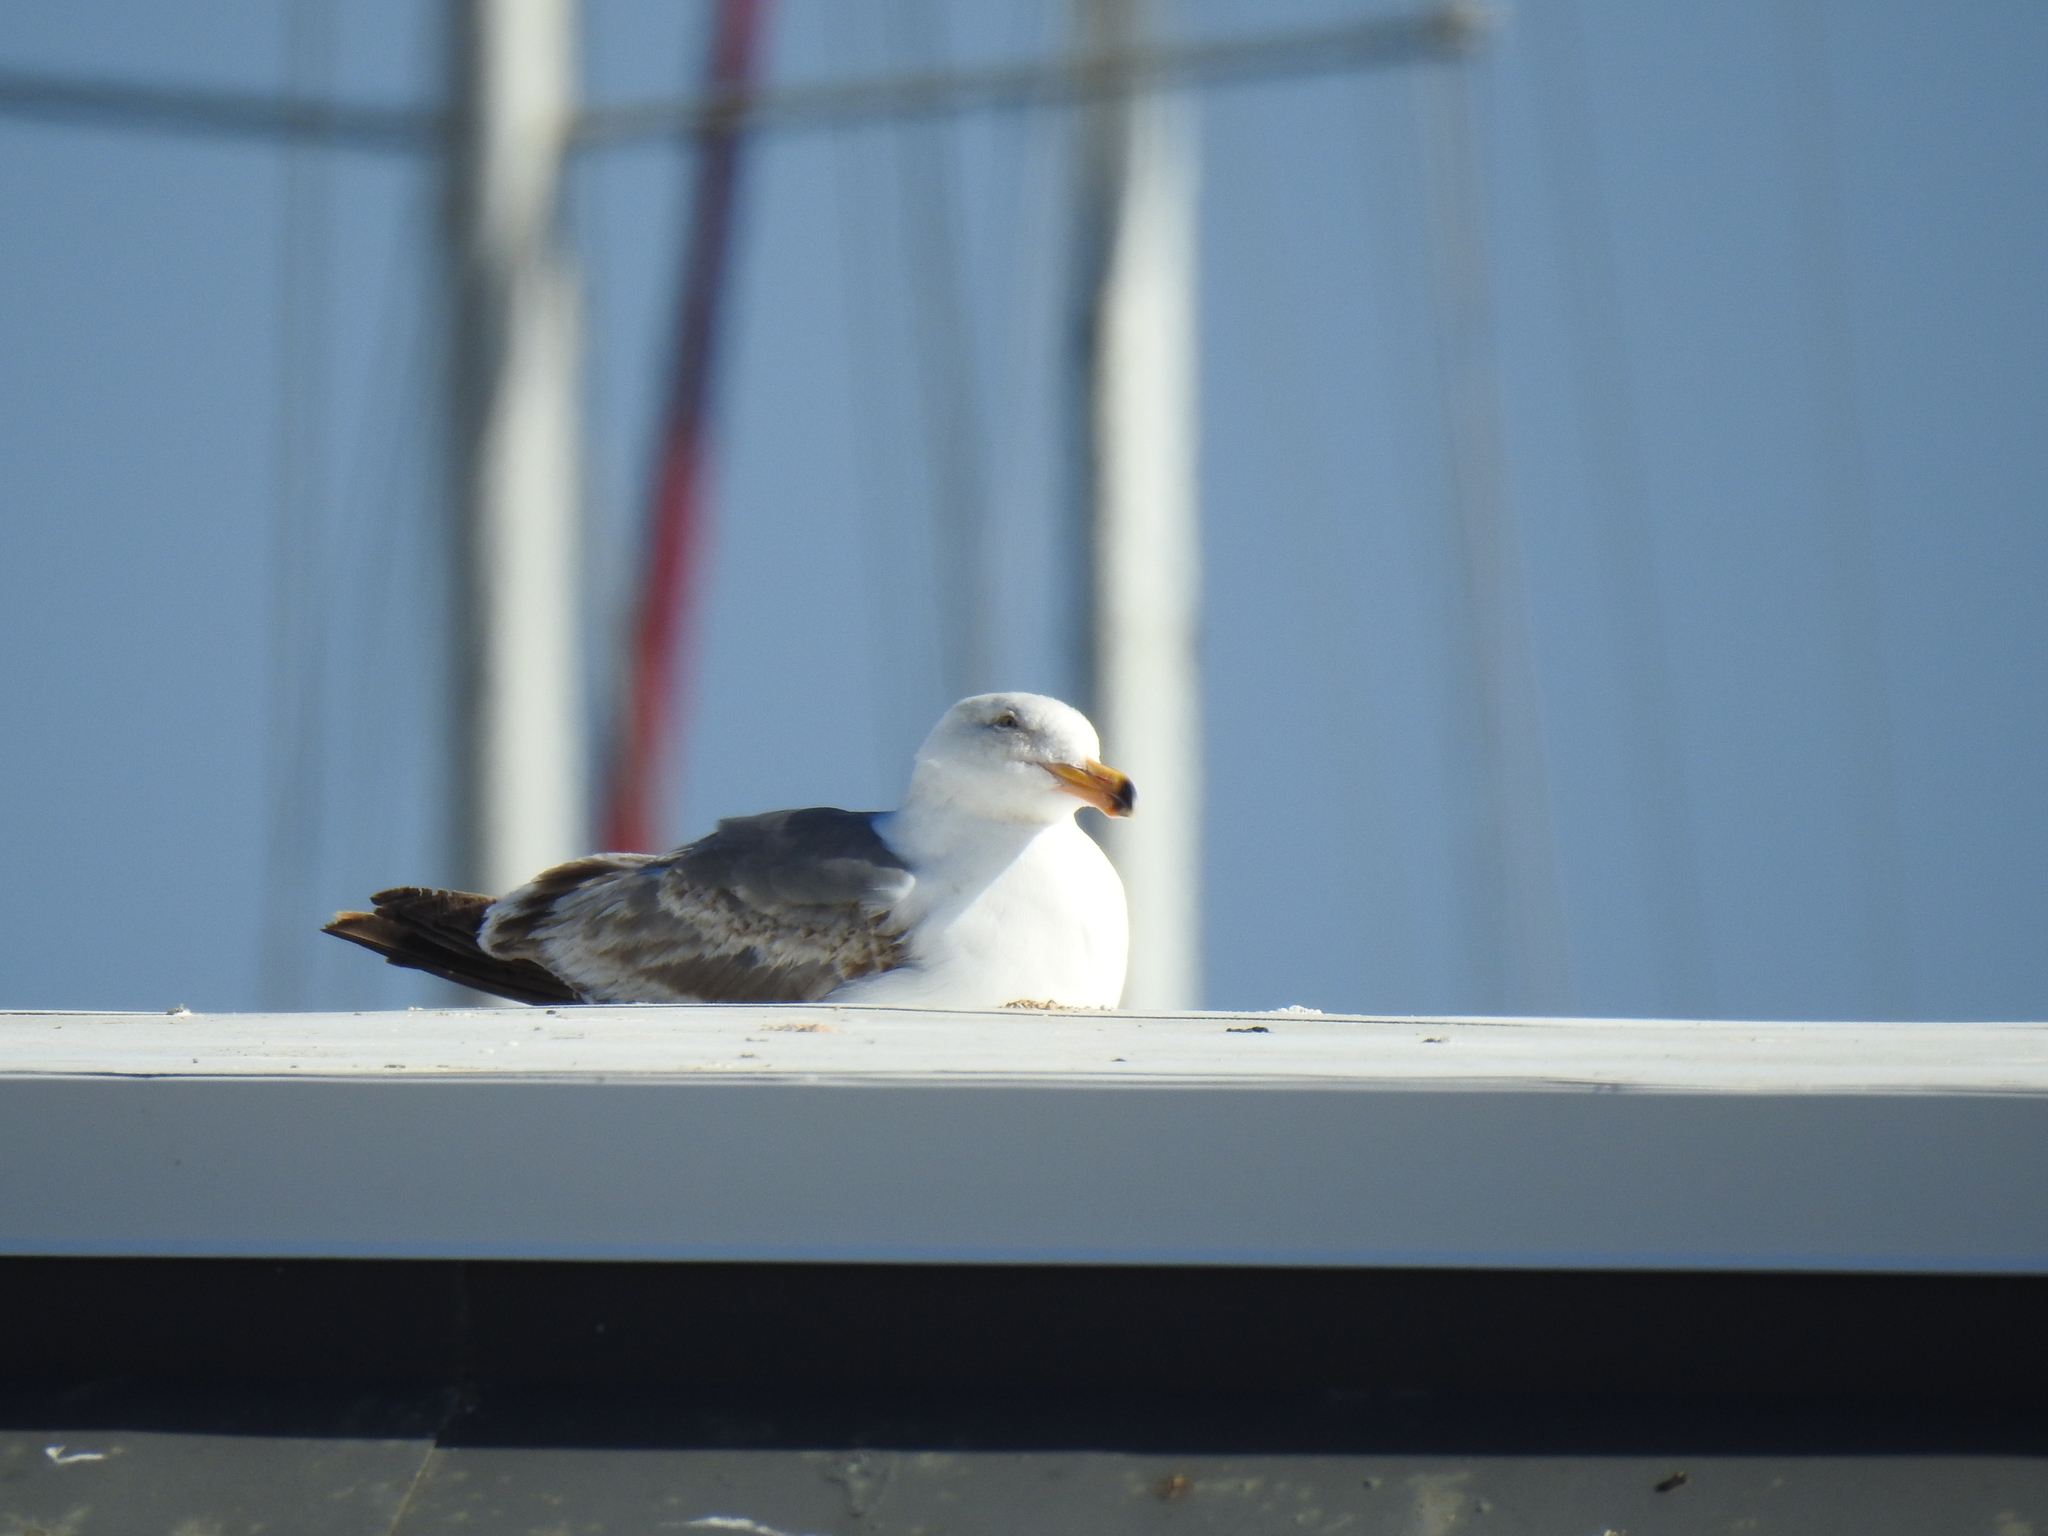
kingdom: Animalia
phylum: Chordata
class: Aves
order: Charadriiformes
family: Laridae
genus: Larus
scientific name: Larus occidentalis
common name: Western gull
